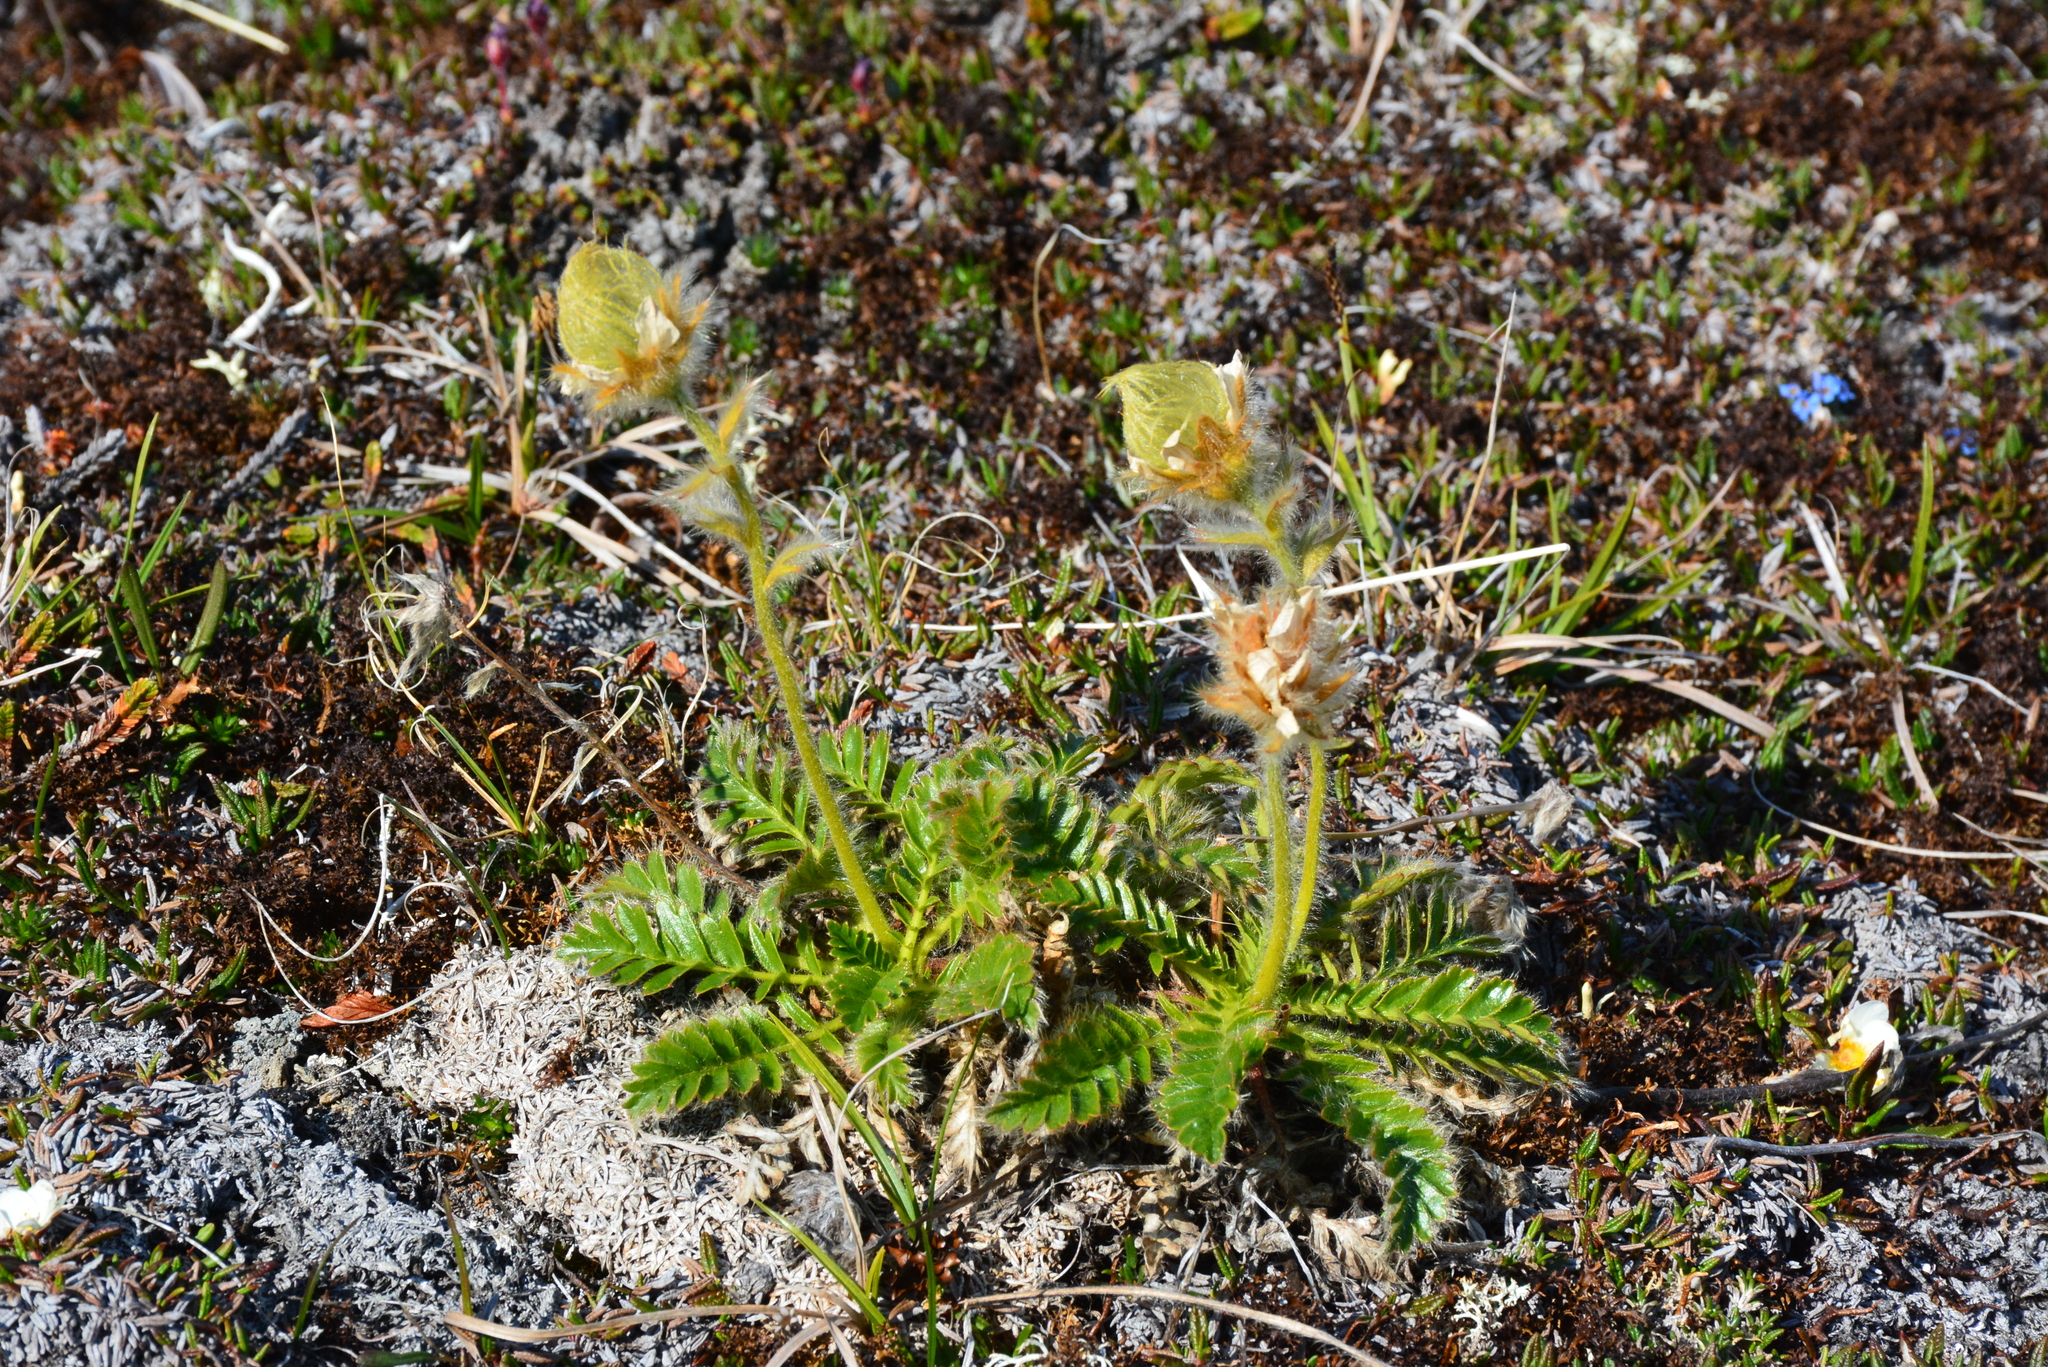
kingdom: Plantae
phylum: Tracheophyta
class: Magnoliopsida
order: Rosales
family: Rosaceae
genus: Geum
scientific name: Geum glaciale
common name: Glacier avens
